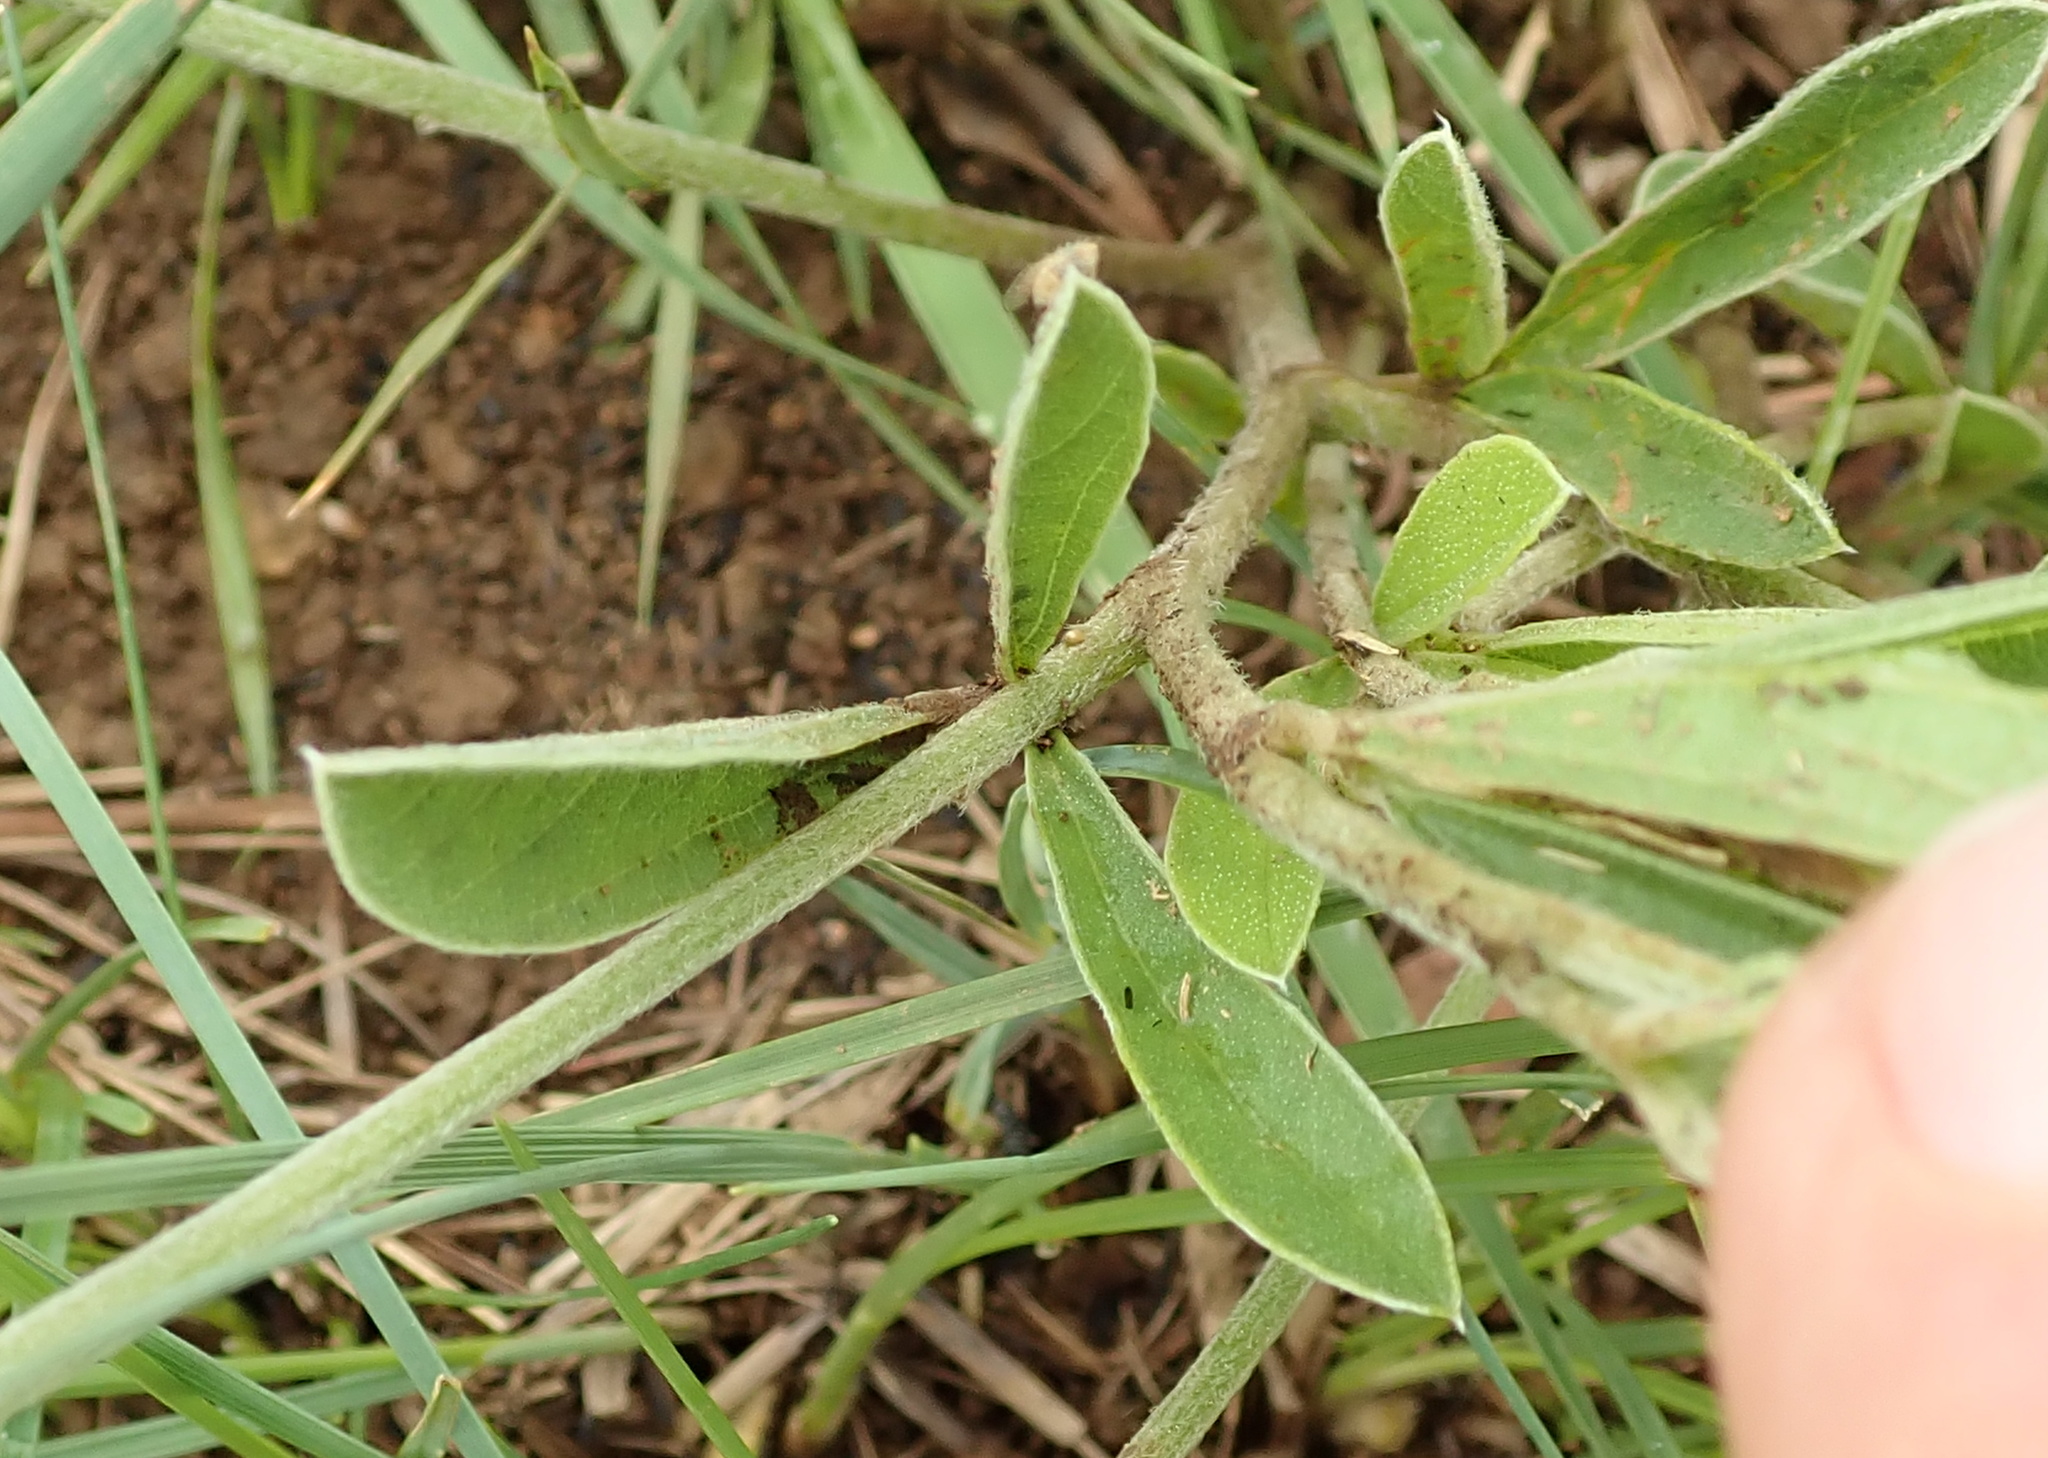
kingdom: Plantae
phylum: Tracheophyta
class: Magnoliopsida
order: Fabales
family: Fabaceae
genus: Eriosema
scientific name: Eriosema kraussianum
